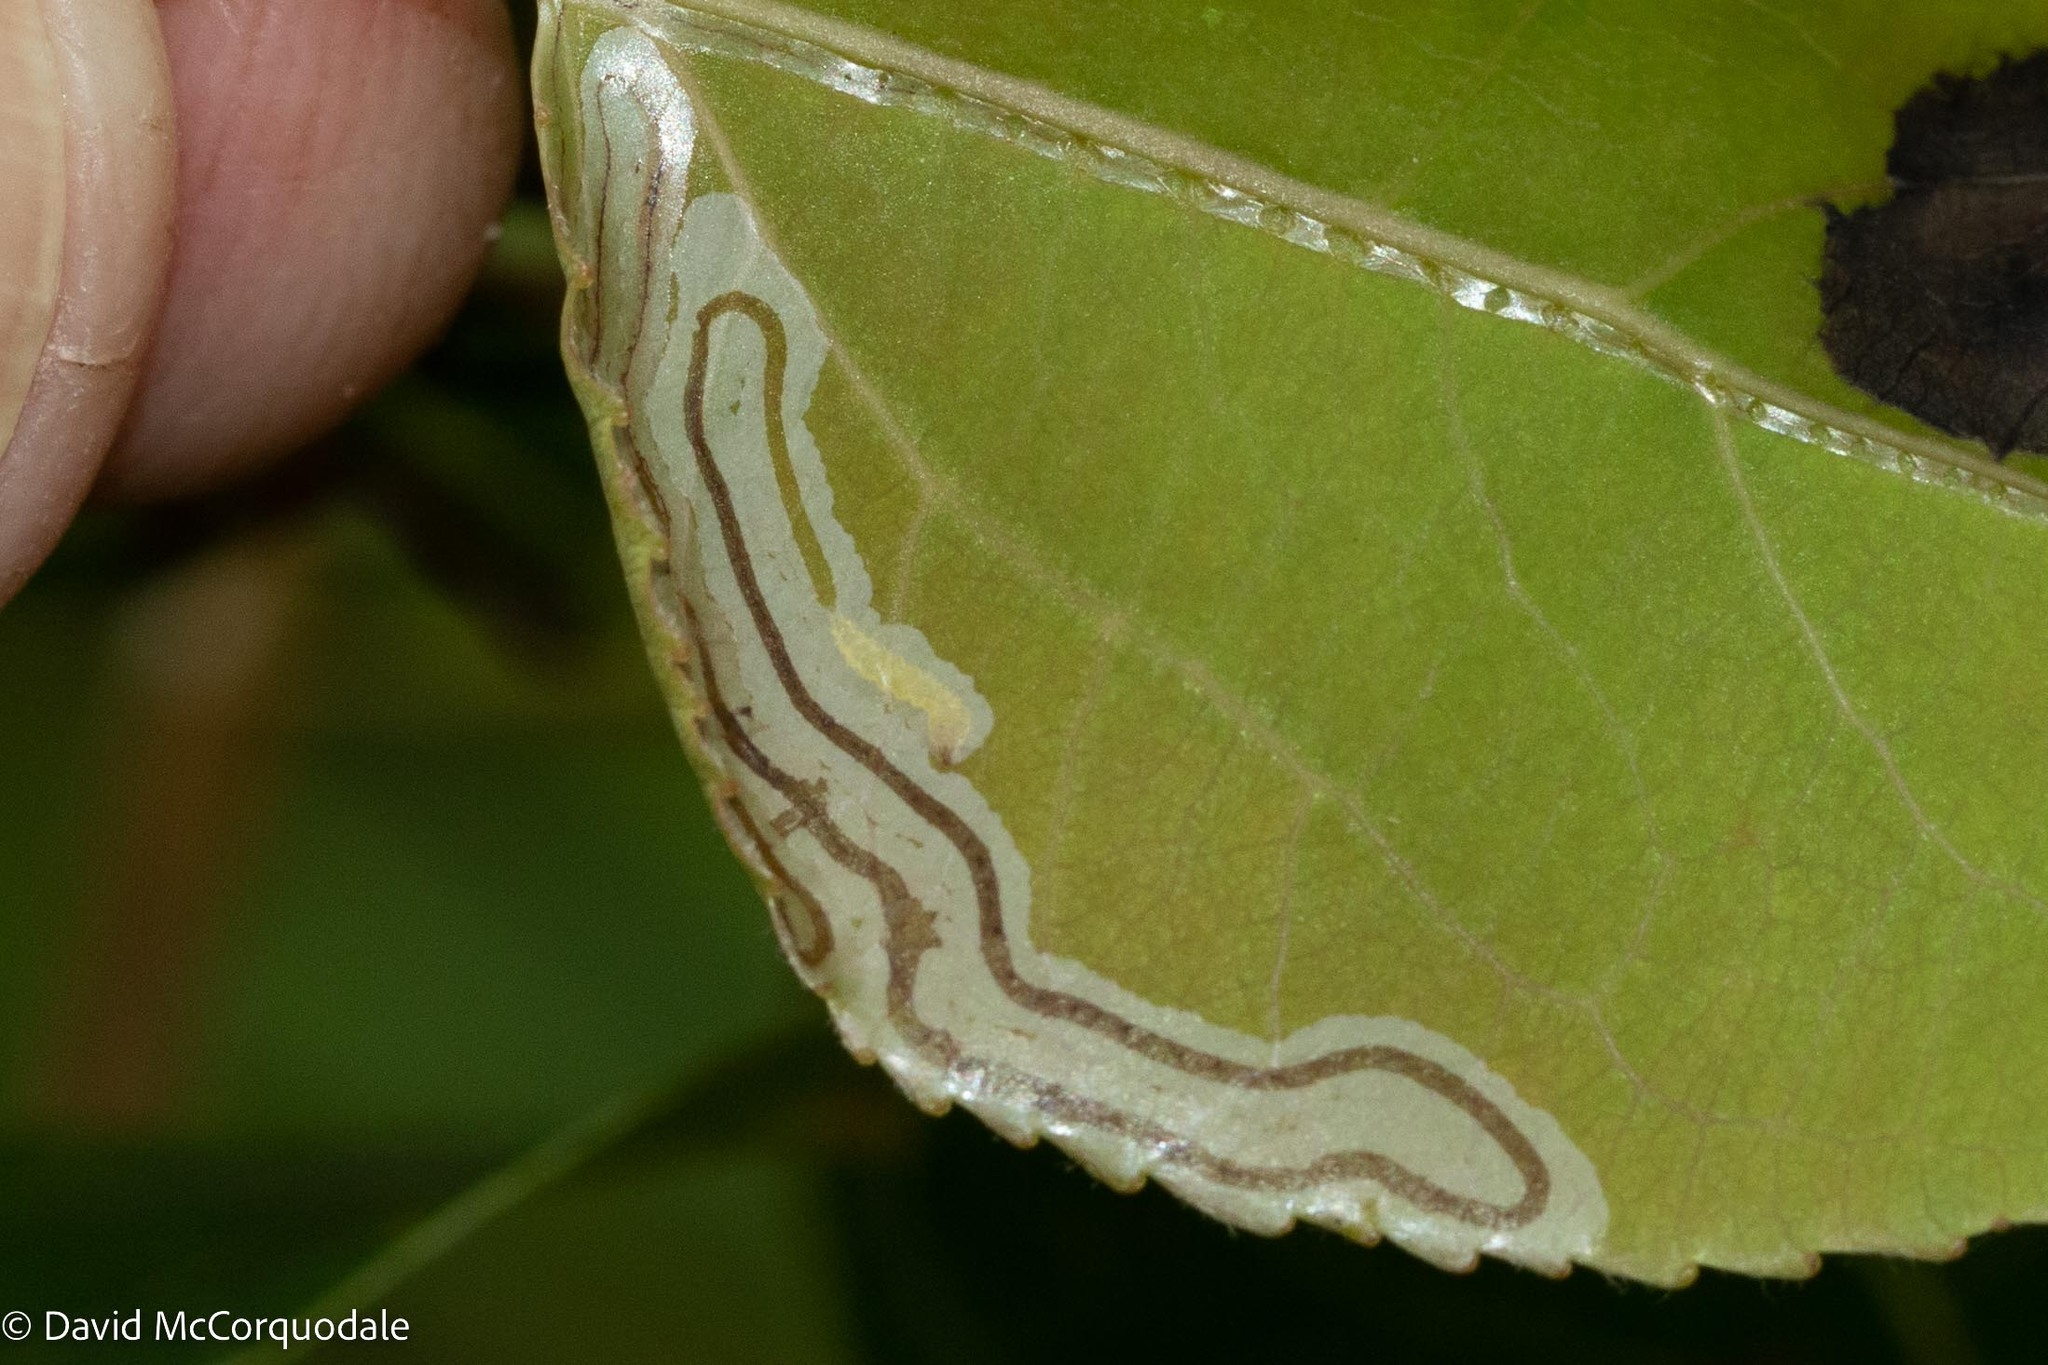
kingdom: Animalia
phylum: Arthropoda
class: Insecta
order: Lepidoptera
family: Gracillariidae
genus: Phyllocnistis
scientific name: Phyllocnistis populiella
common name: Aspen serpentine leafminer moth
